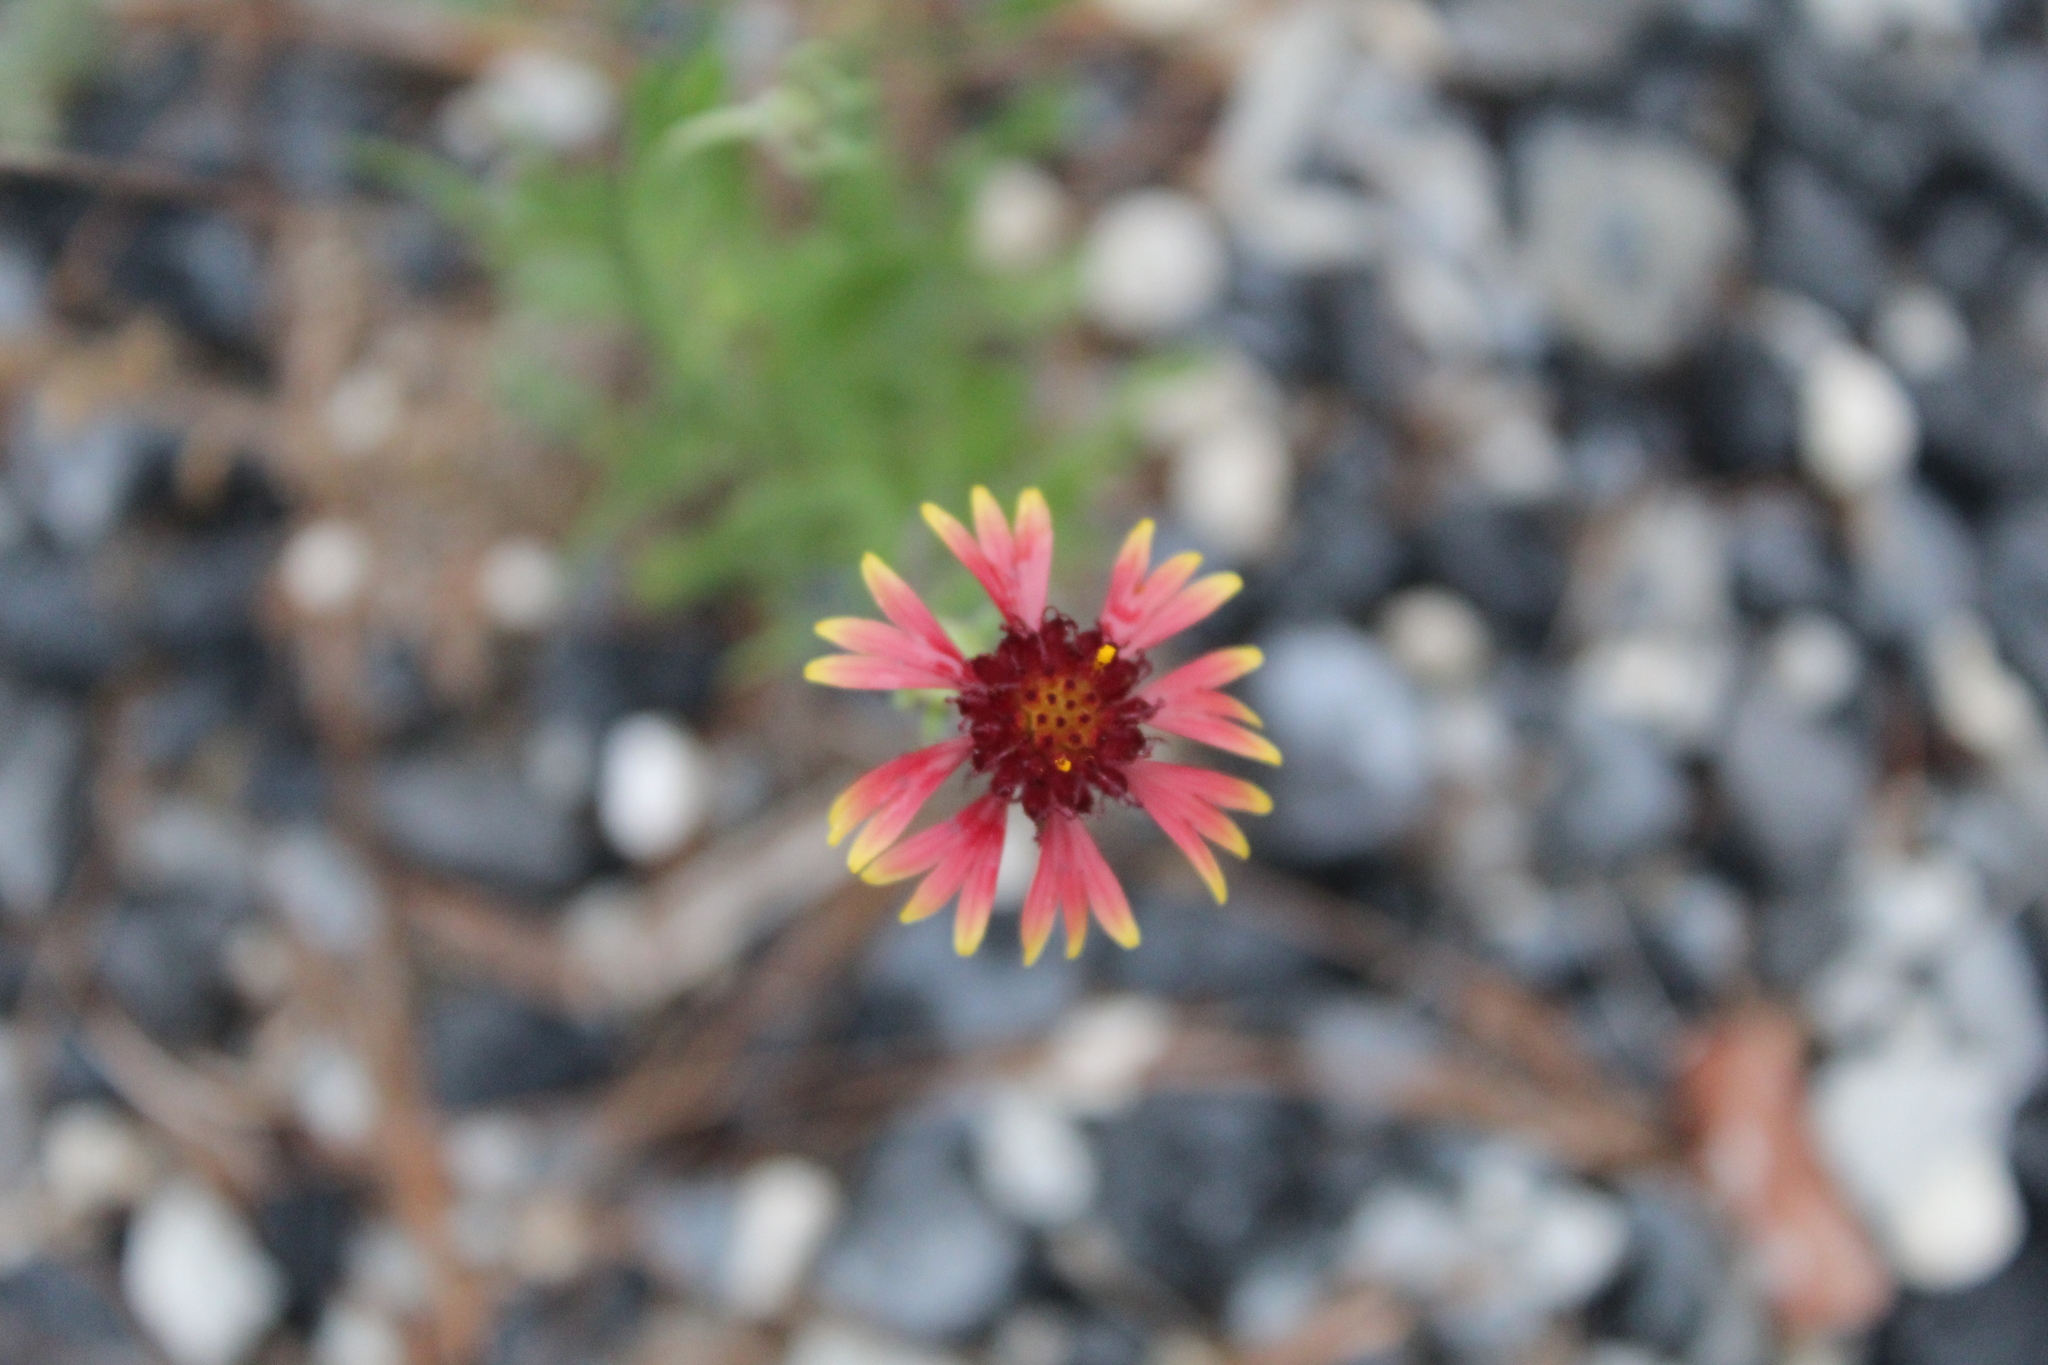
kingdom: Plantae
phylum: Tracheophyta
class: Magnoliopsida
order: Asterales
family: Asteraceae
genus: Gaillardia
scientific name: Gaillardia pulchella
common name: Firewheel
